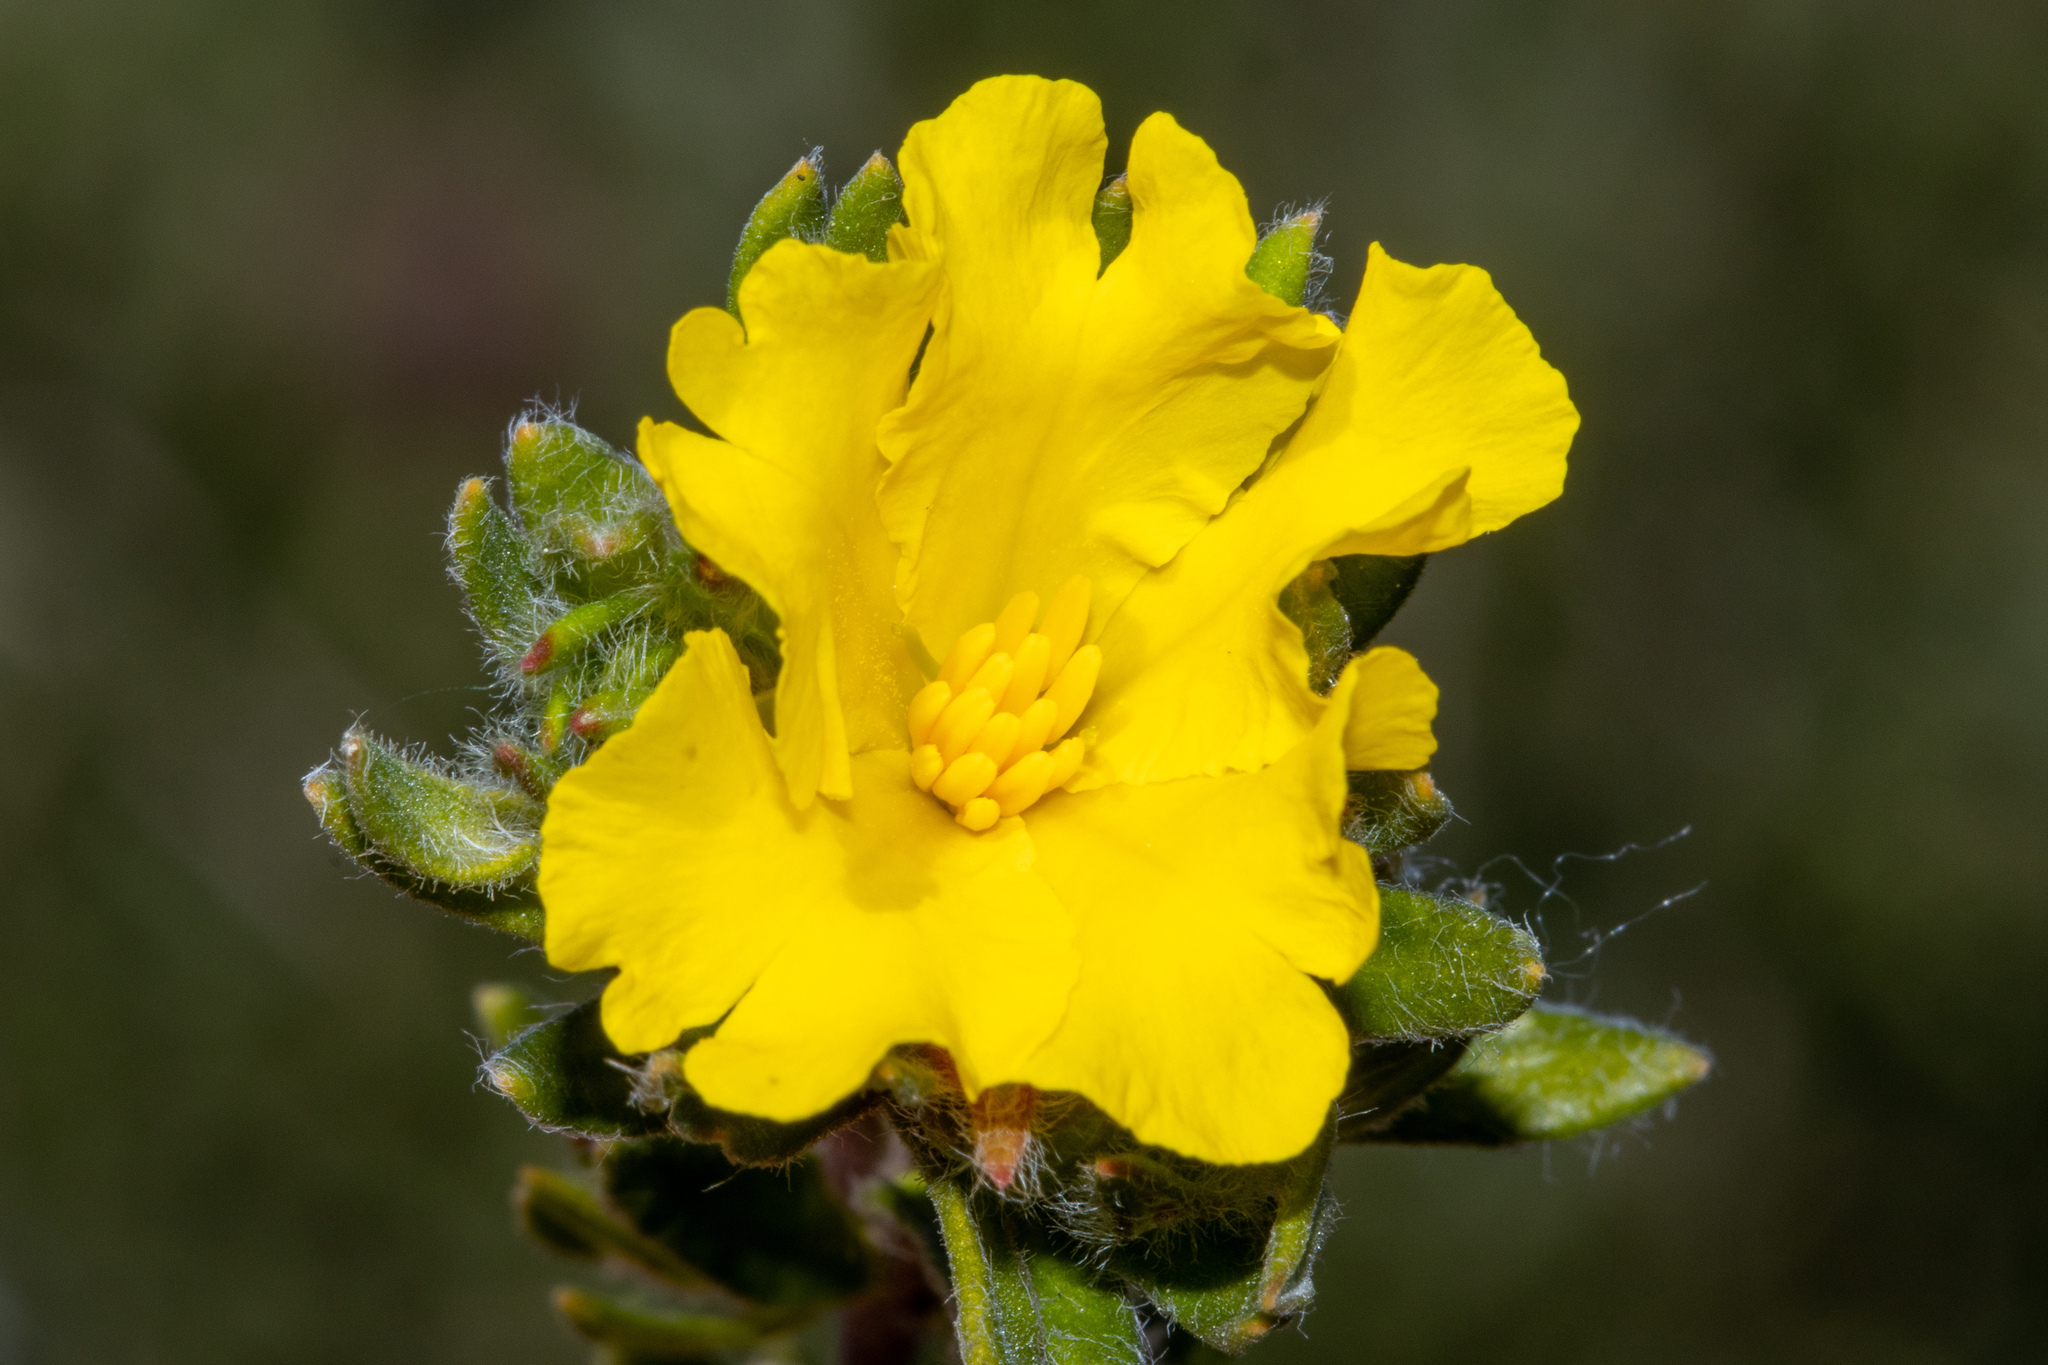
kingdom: Plantae
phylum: Tracheophyta
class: Magnoliopsida
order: Dilleniales
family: Dilleniaceae
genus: Hibbertia
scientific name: Hibbertia villifera
